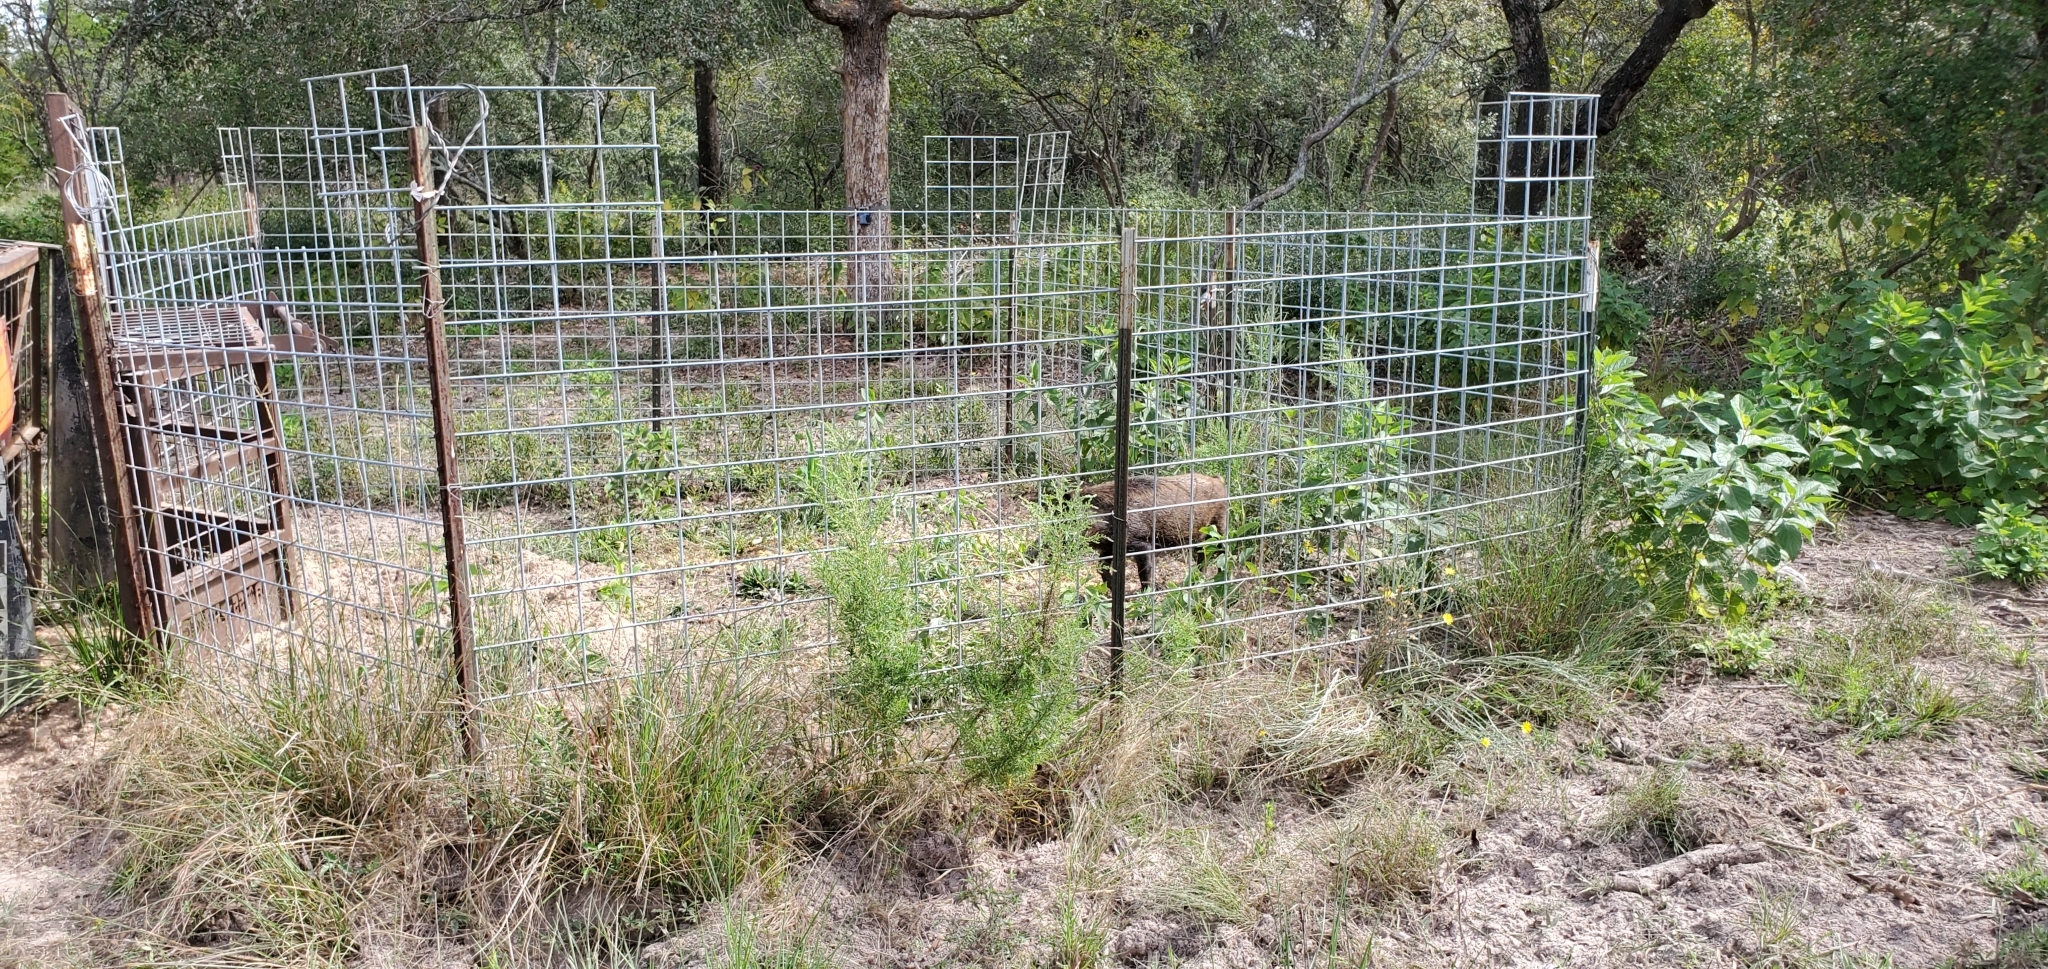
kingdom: Animalia
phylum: Chordata
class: Mammalia
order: Artiodactyla
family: Suidae
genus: Sus
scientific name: Sus scrofa
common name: Wild boar
